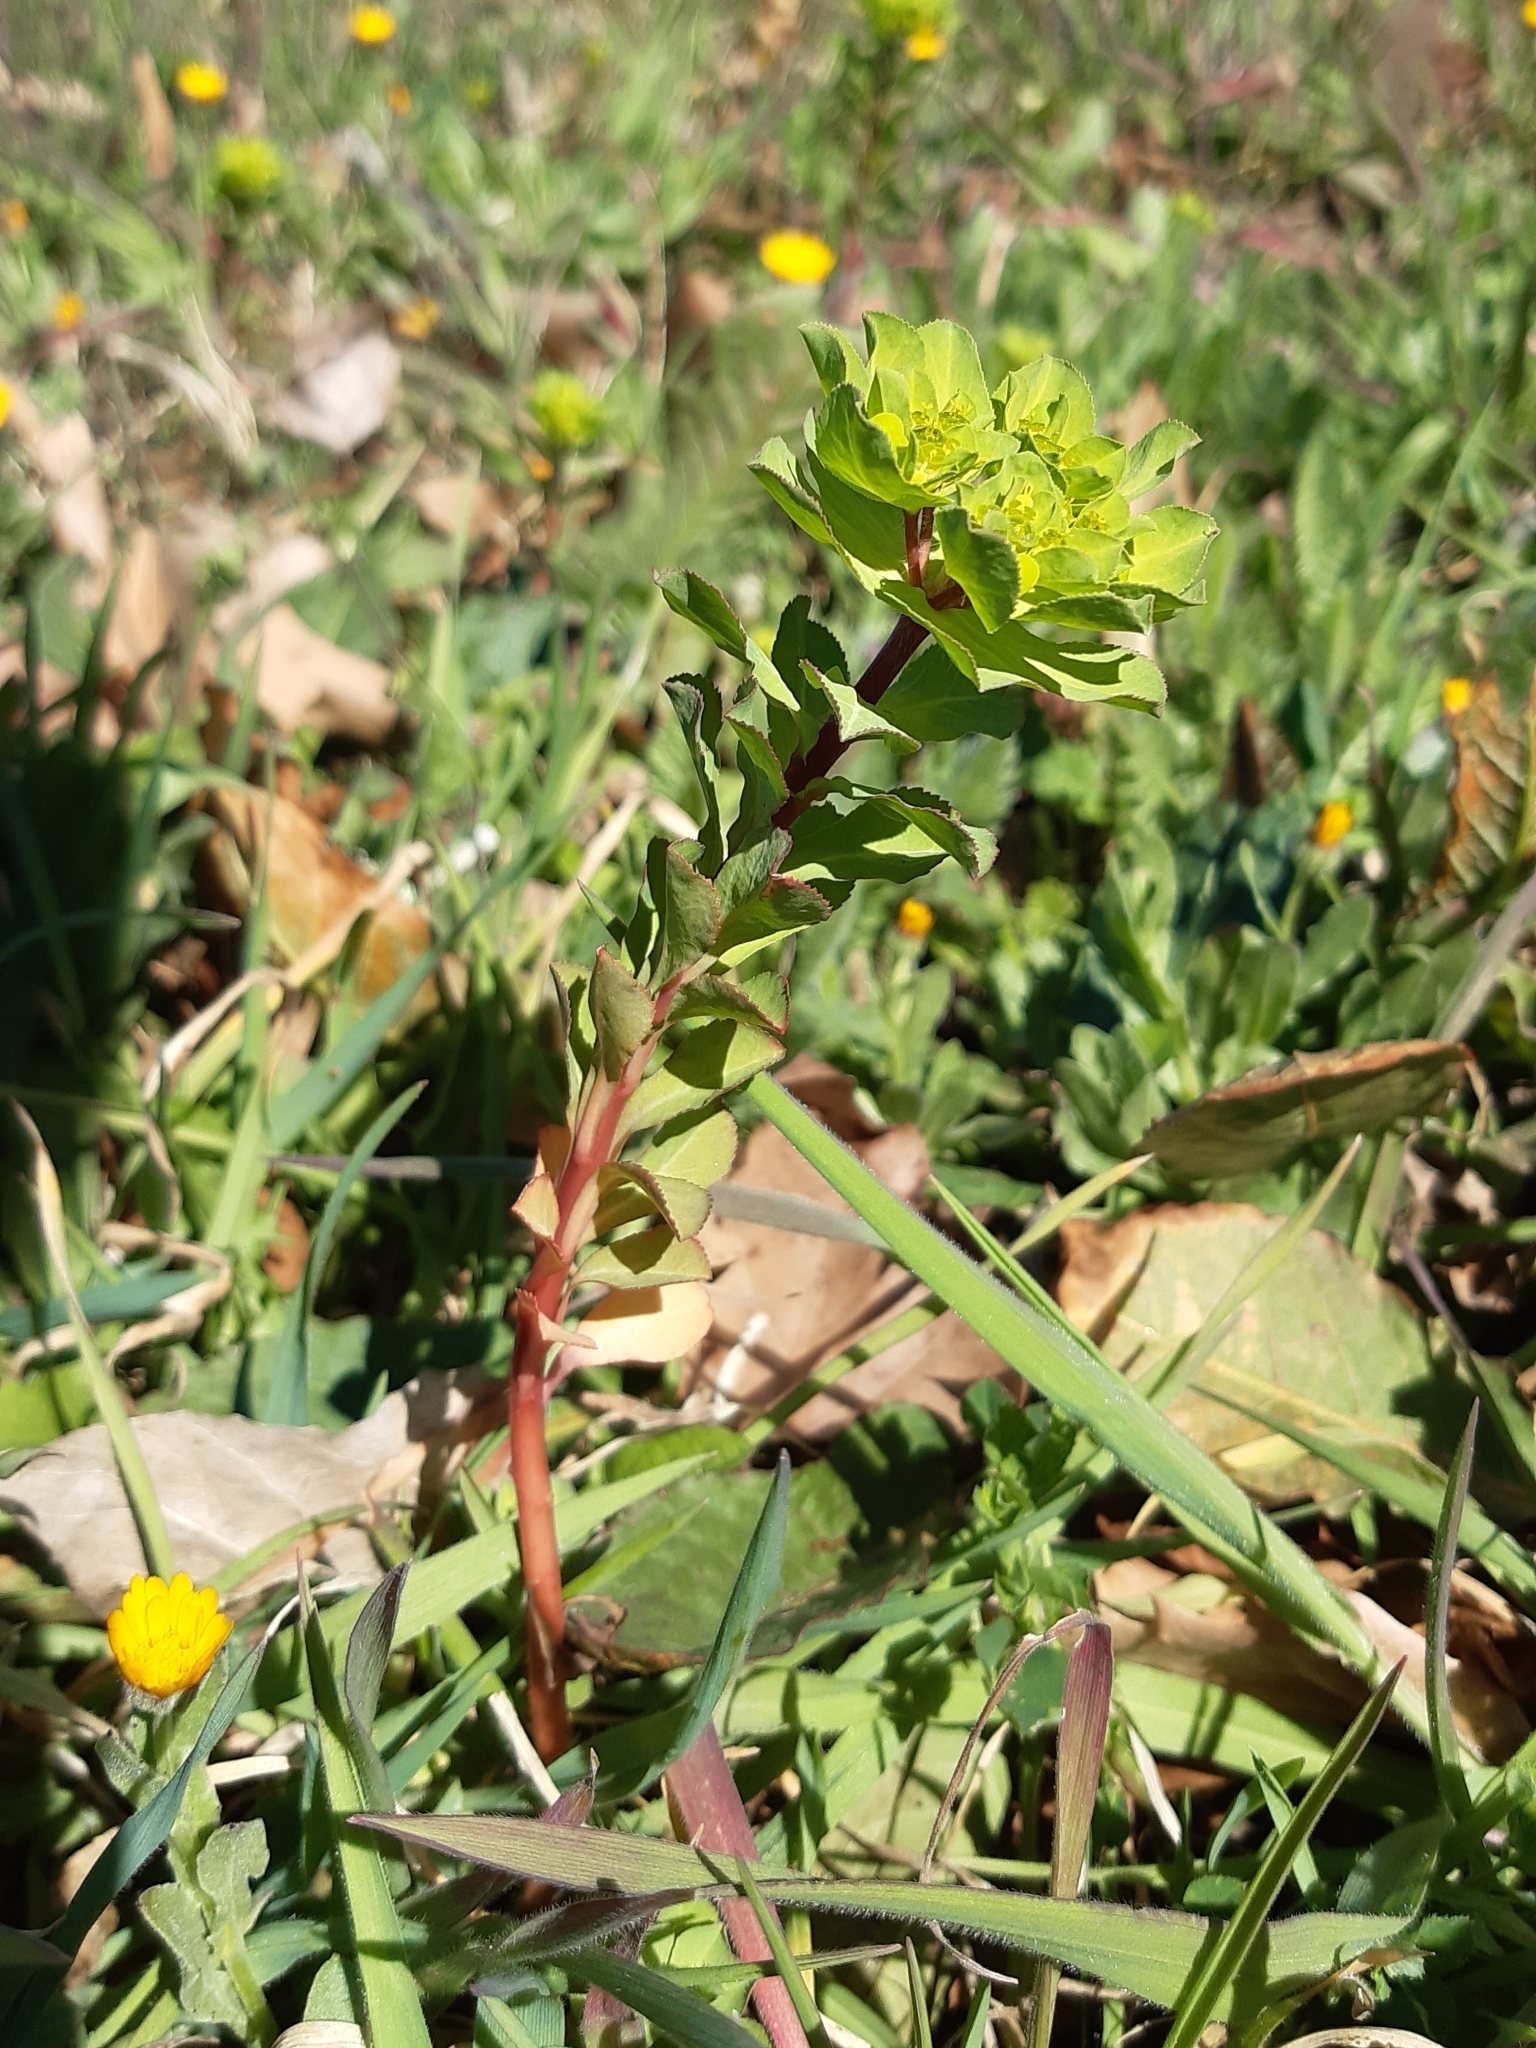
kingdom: Plantae
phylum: Tracheophyta
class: Magnoliopsida
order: Malpighiales
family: Euphorbiaceae
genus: Euphorbia
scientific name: Euphorbia helioscopia
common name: Sun spurge
